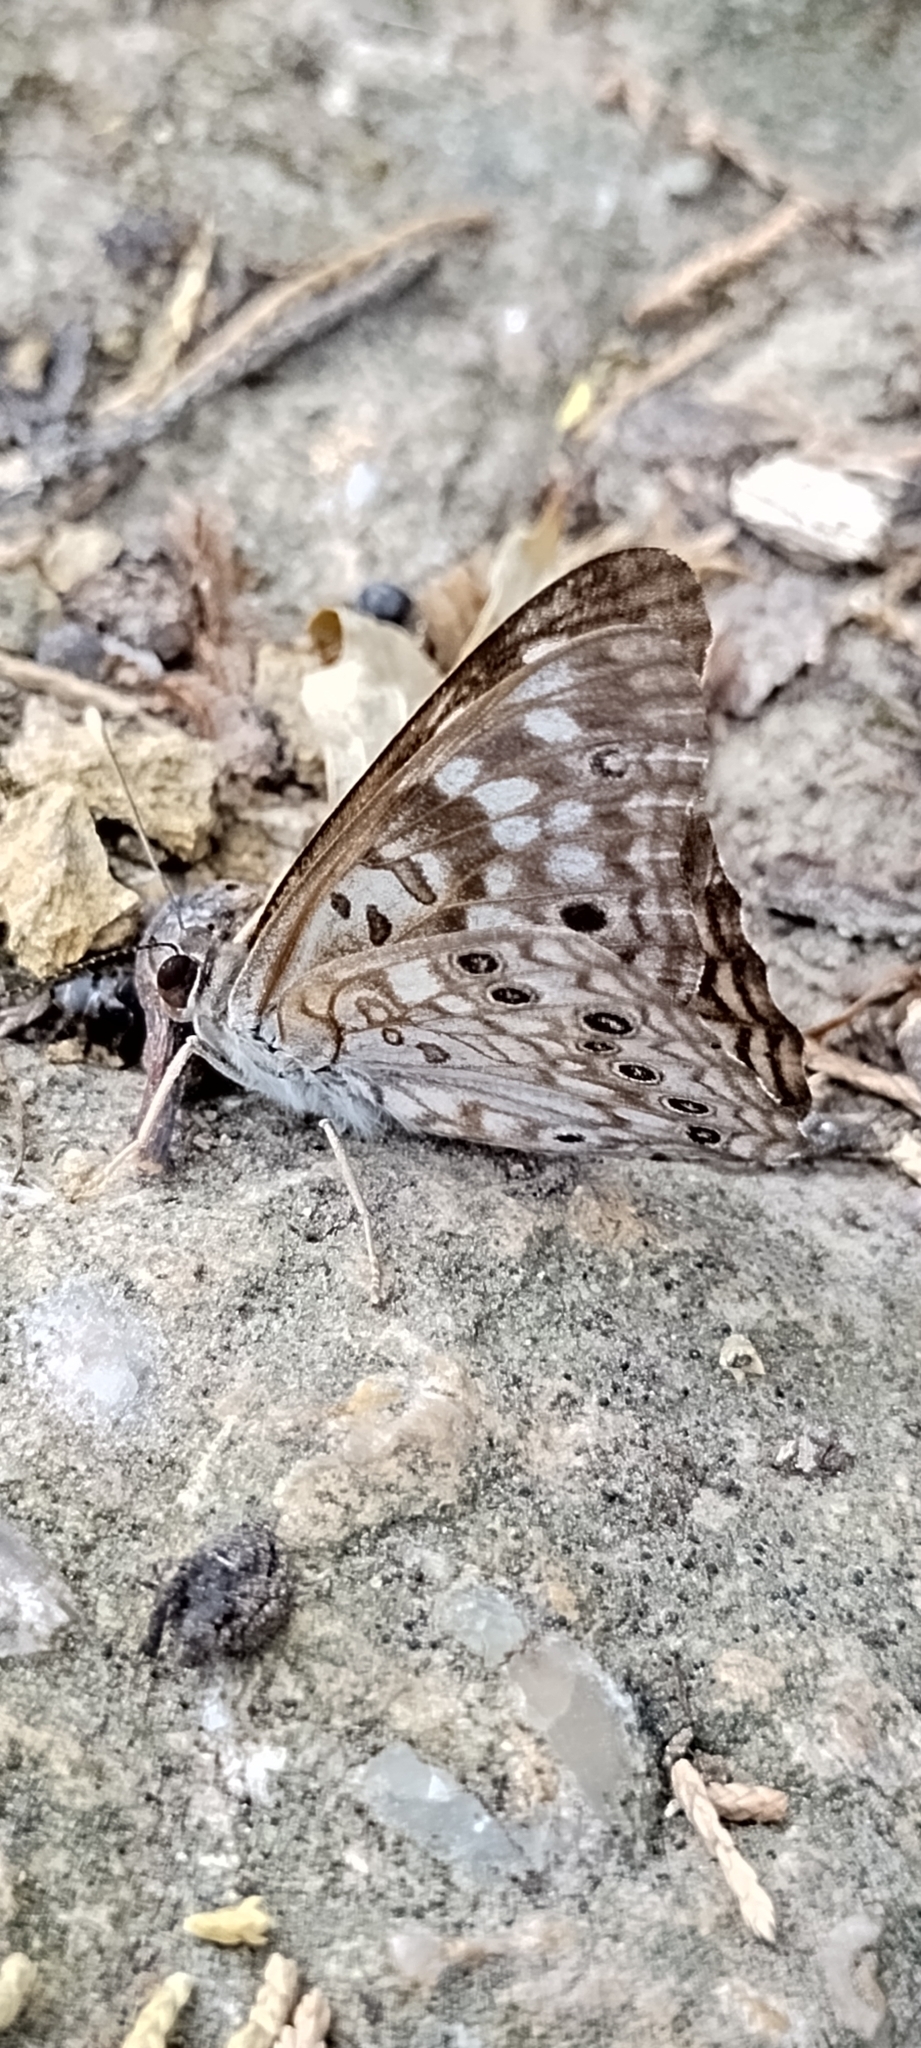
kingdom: Animalia
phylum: Arthropoda
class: Insecta
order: Lepidoptera
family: Nymphalidae
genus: Asterocampa
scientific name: Asterocampa celtis
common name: Hackberry emperor
